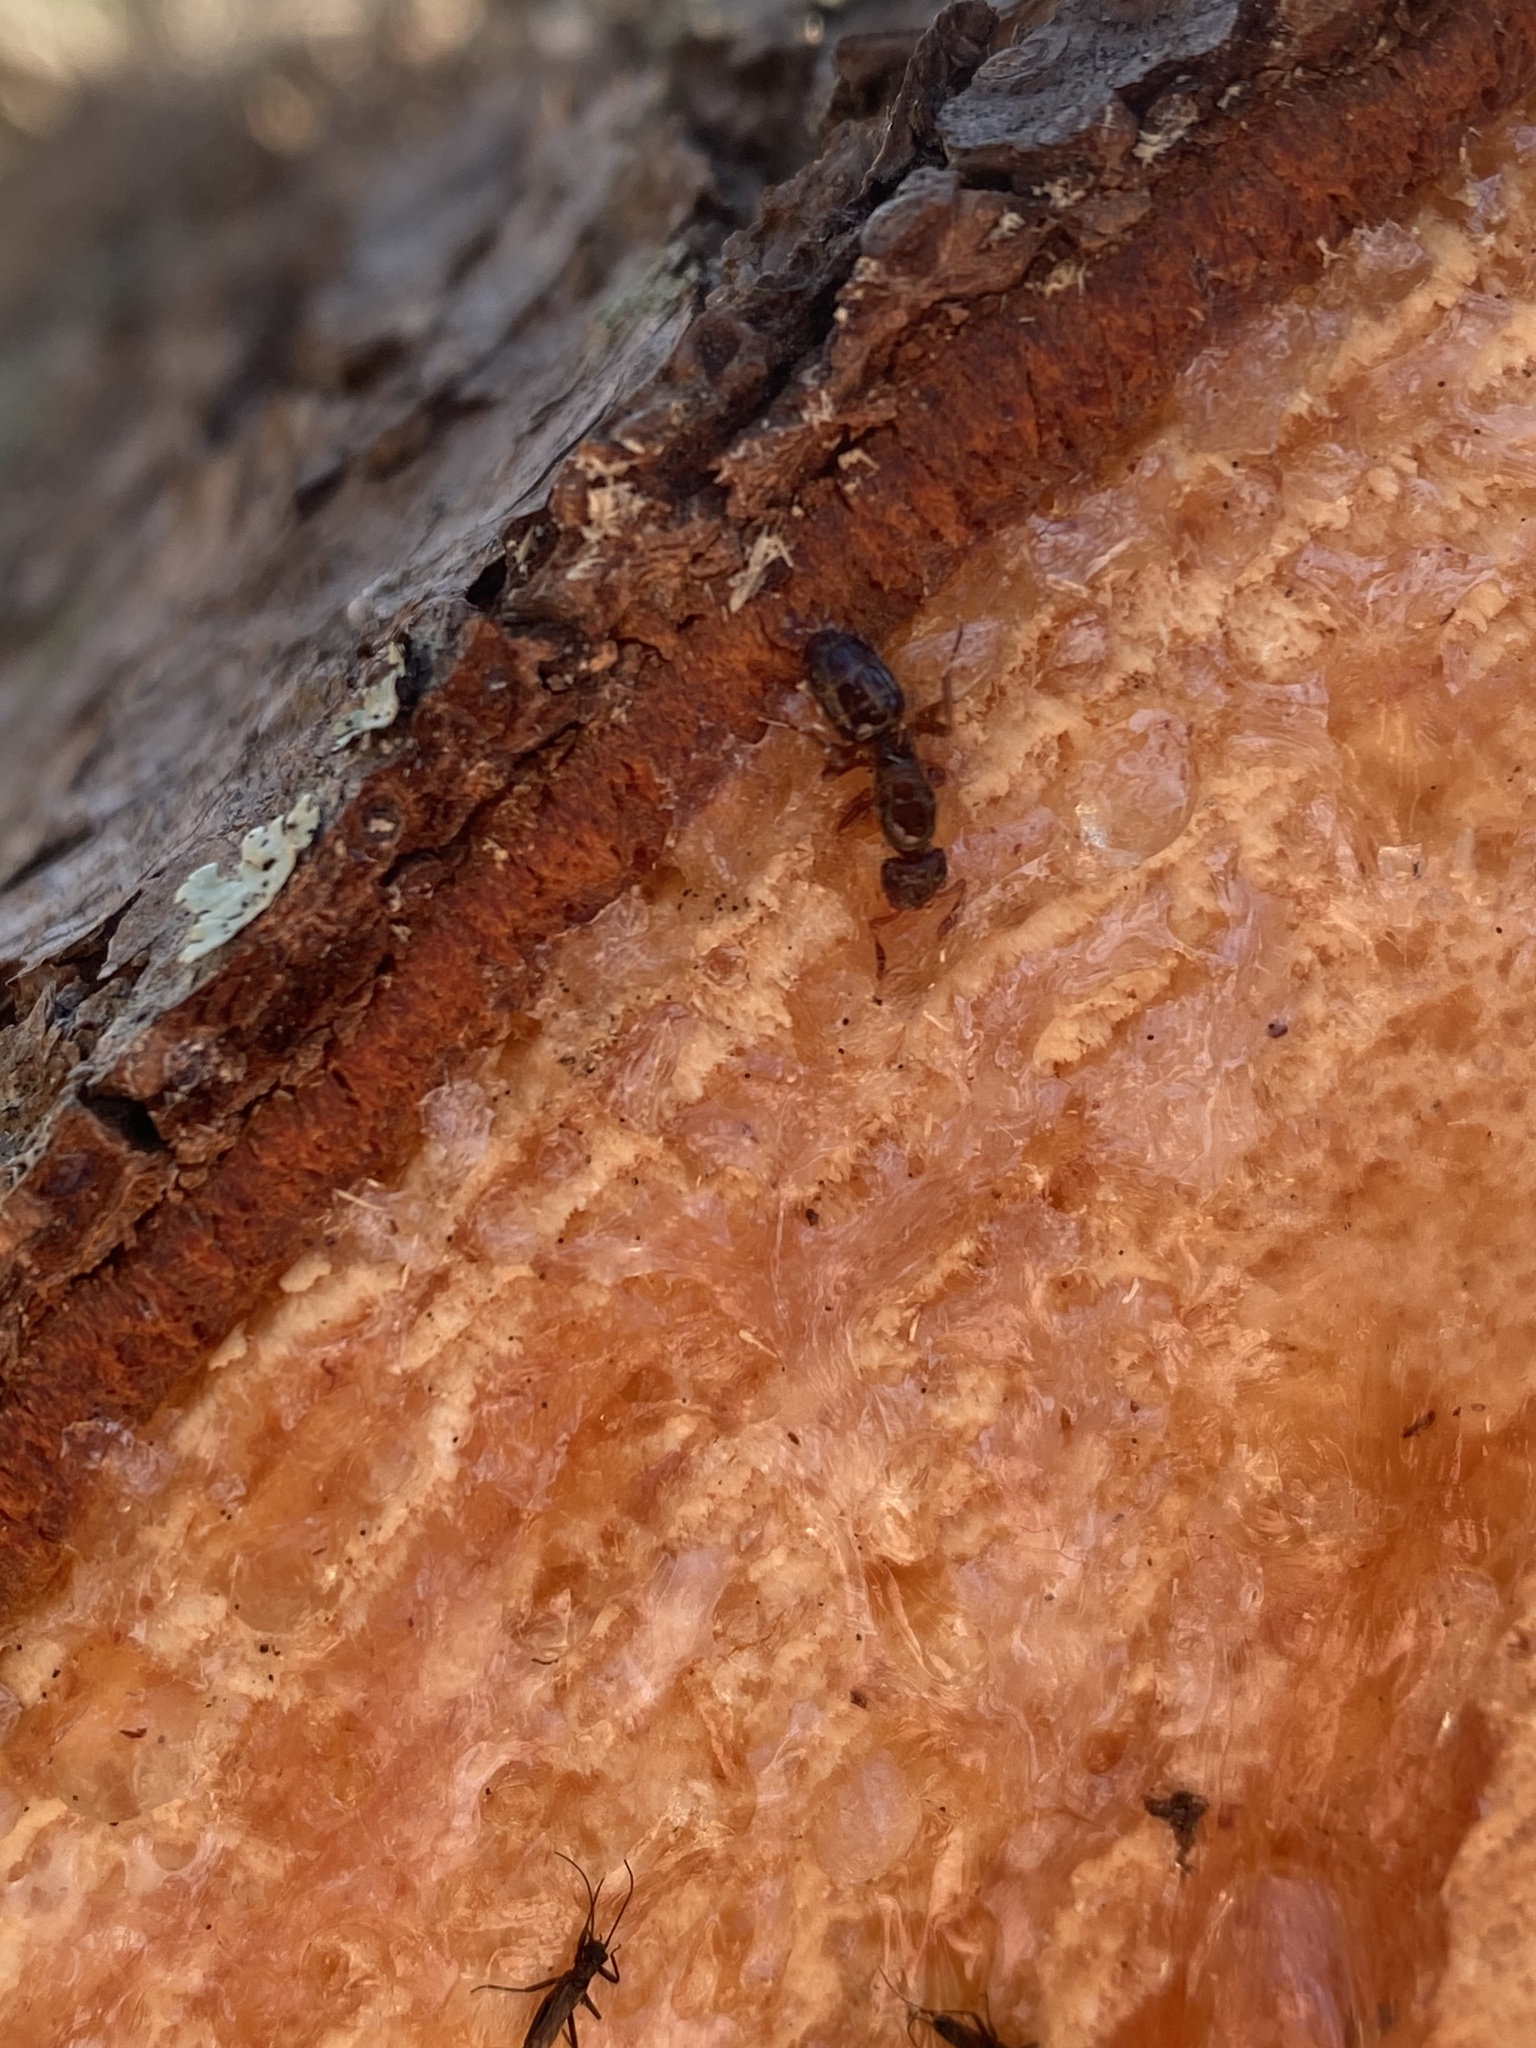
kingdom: Animalia
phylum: Arthropoda
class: Insecta
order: Hymenoptera
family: Formicidae
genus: Lasius
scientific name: Lasius claviger
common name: Common citronella ant
